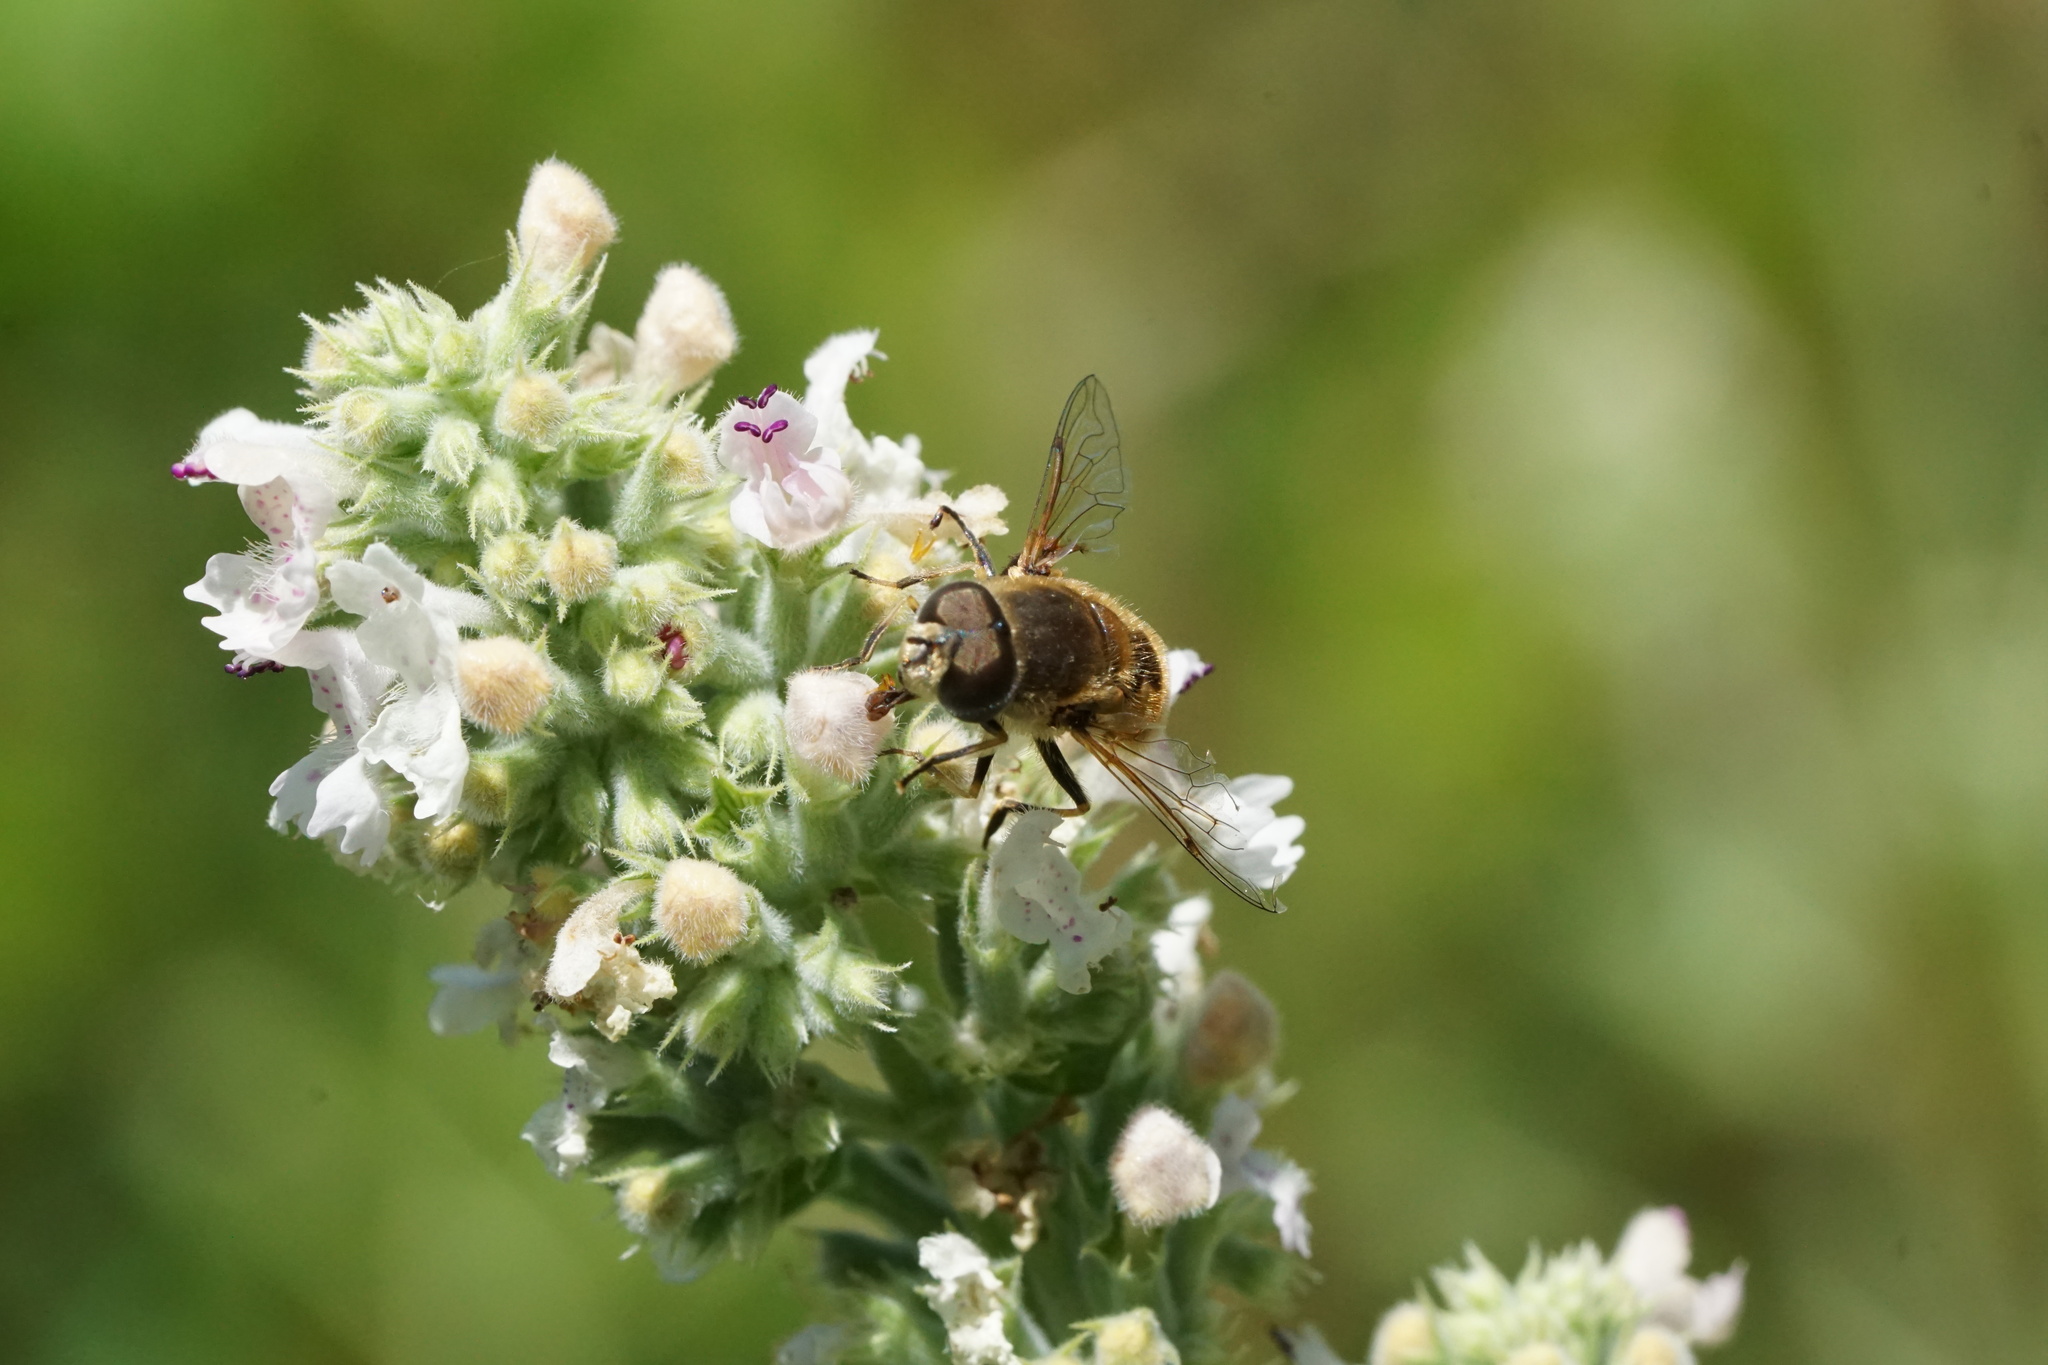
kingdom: Animalia
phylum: Arthropoda
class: Insecta
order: Diptera
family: Syrphidae
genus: Eristalis
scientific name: Eristalis arbustorum
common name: Hover fly
